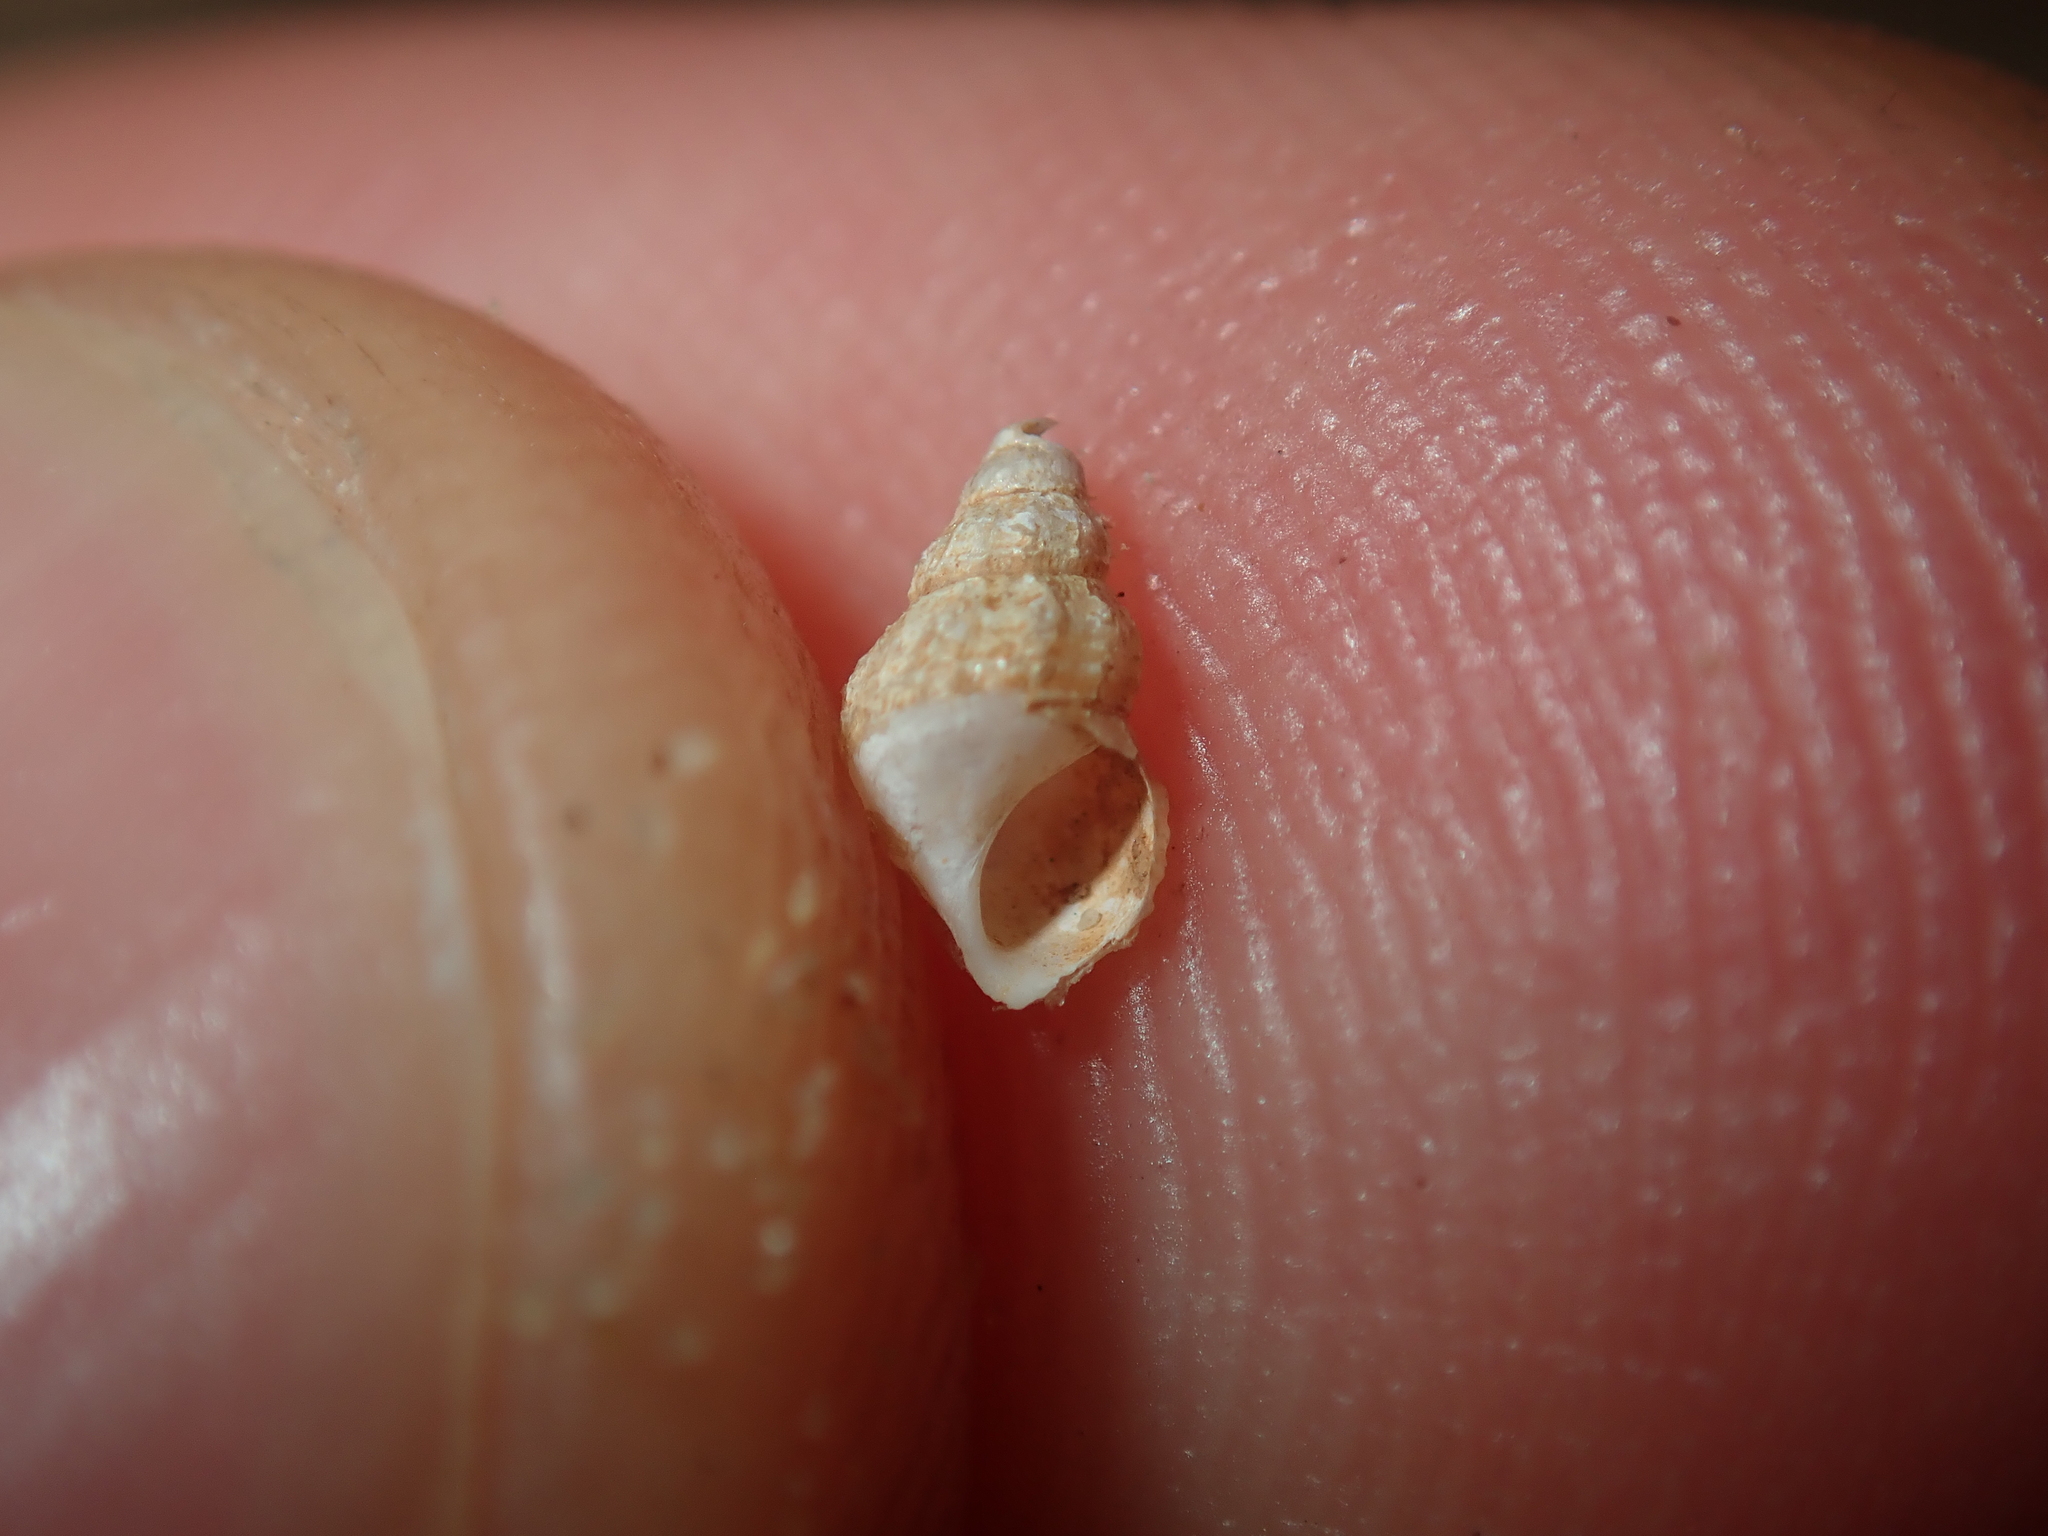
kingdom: Animalia
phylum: Mollusca
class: Gastropoda
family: Thiaridae
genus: Plotiopsis
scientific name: Plotiopsis balonnensis
